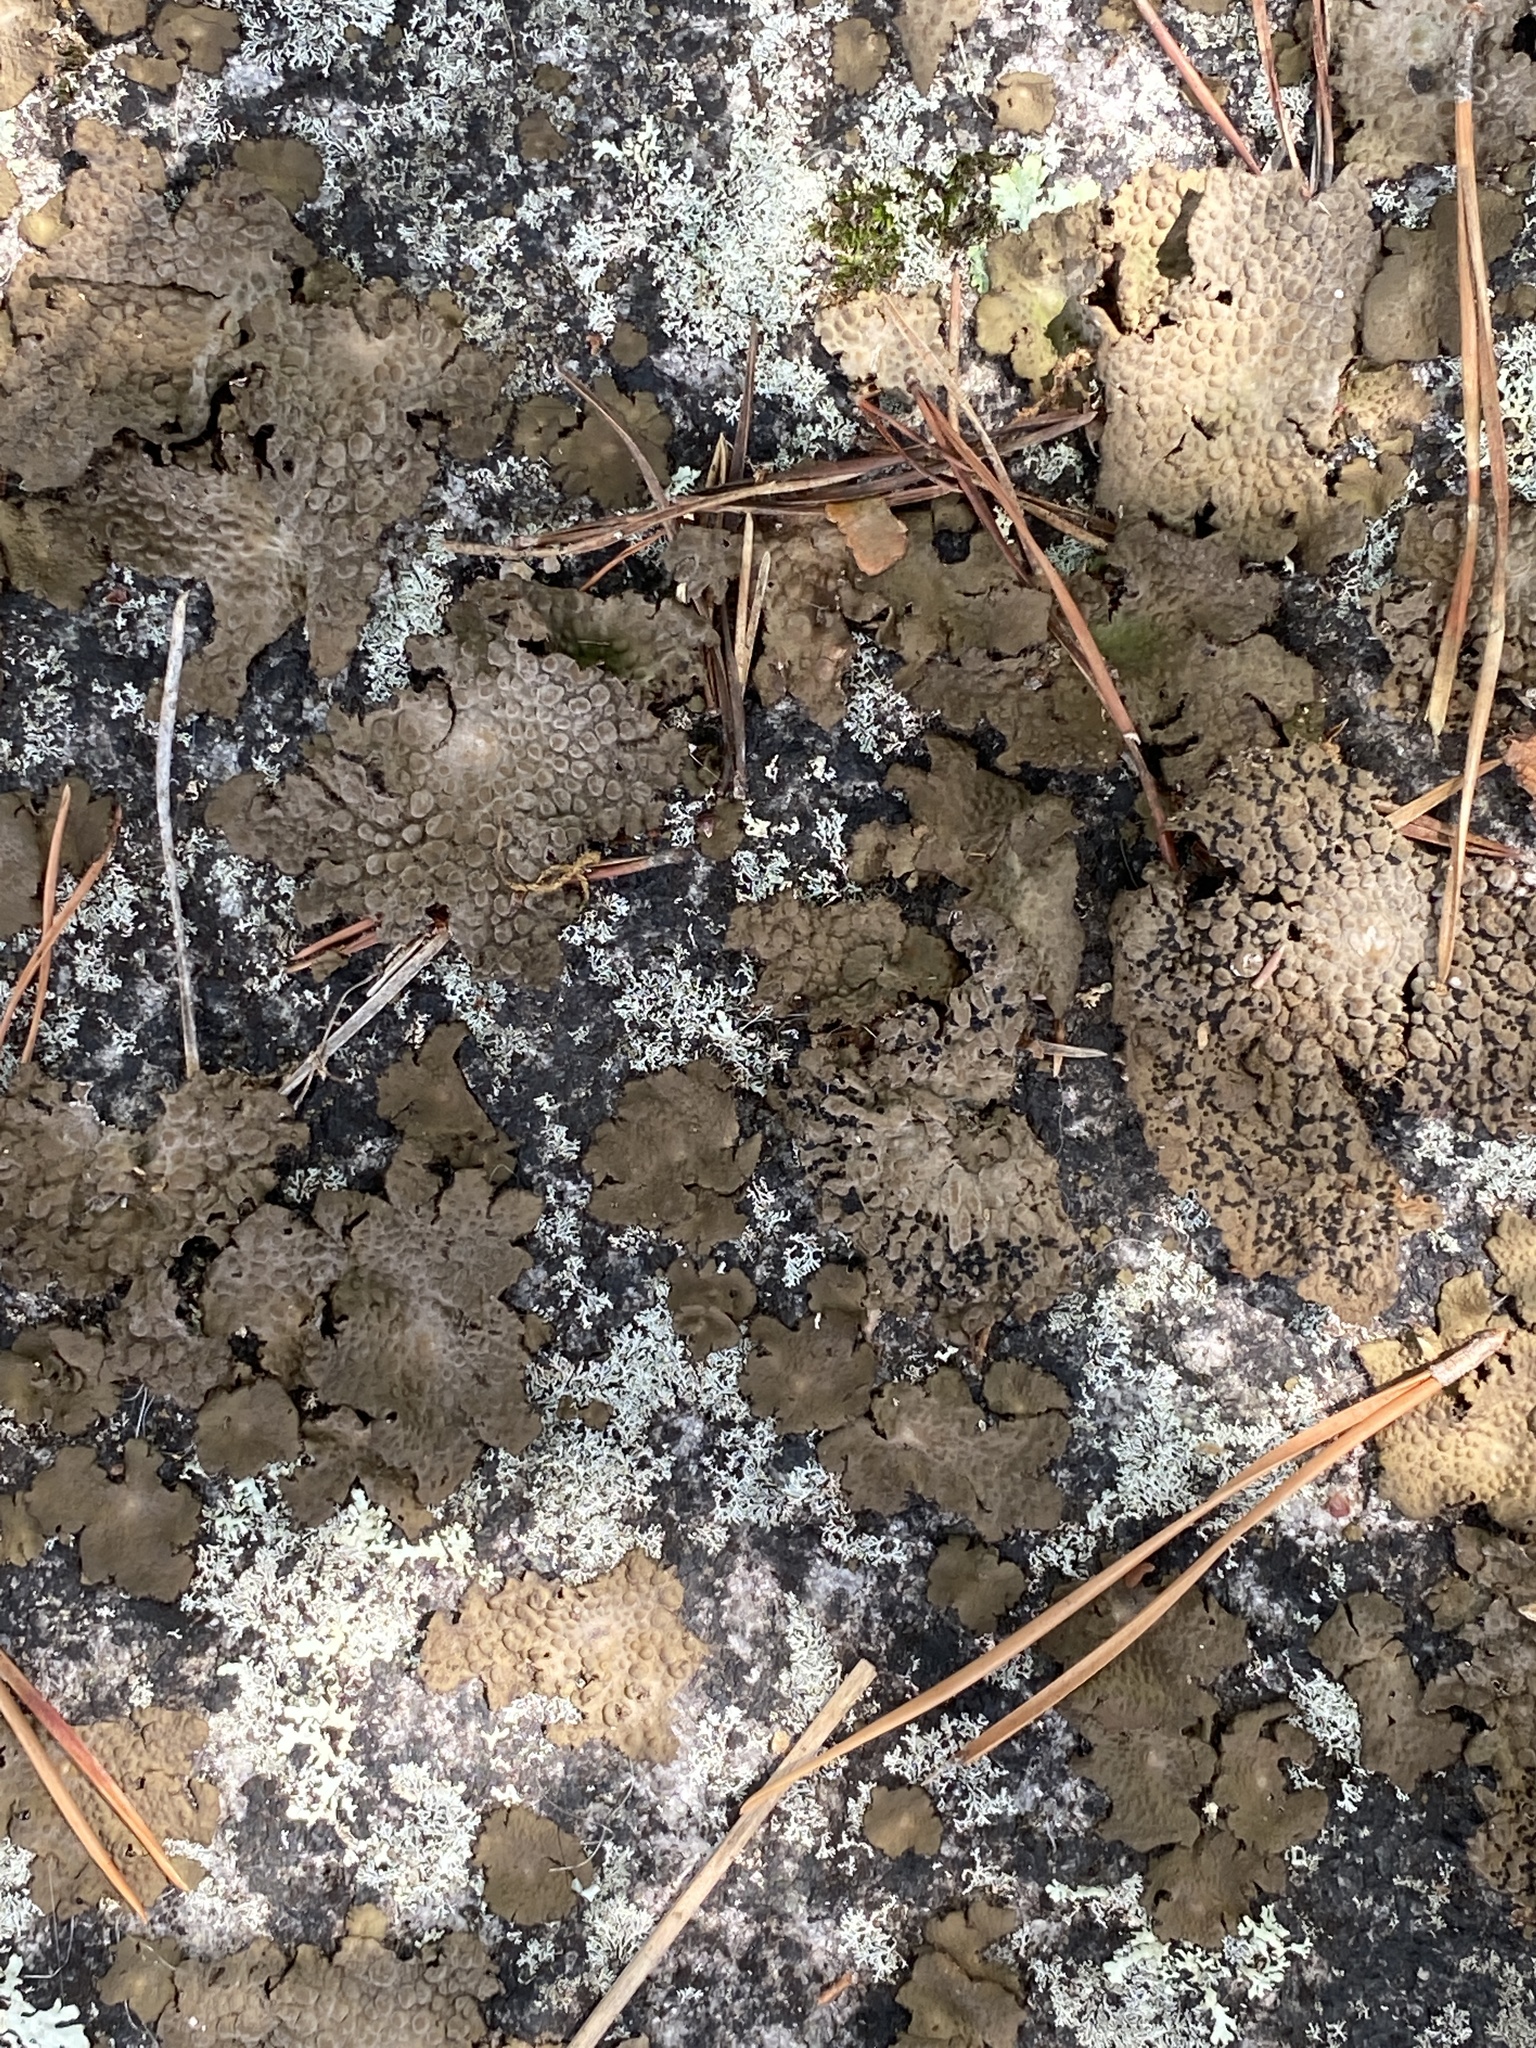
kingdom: Fungi
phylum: Ascomycota
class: Lecanoromycetes
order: Umbilicariales
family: Umbilicariaceae
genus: Lasallia
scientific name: Lasallia papulosa
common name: Common toadskin lichen
